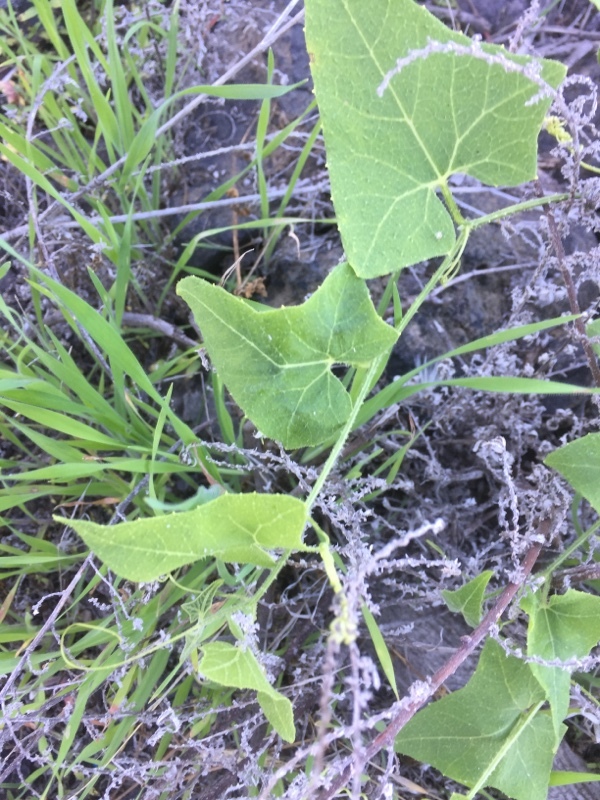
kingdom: Plantae
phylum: Tracheophyta
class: Magnoliopsida
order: Cucurbitales
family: Cucurbitaceae
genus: Bryonia
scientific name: Bryonia verrucosa
